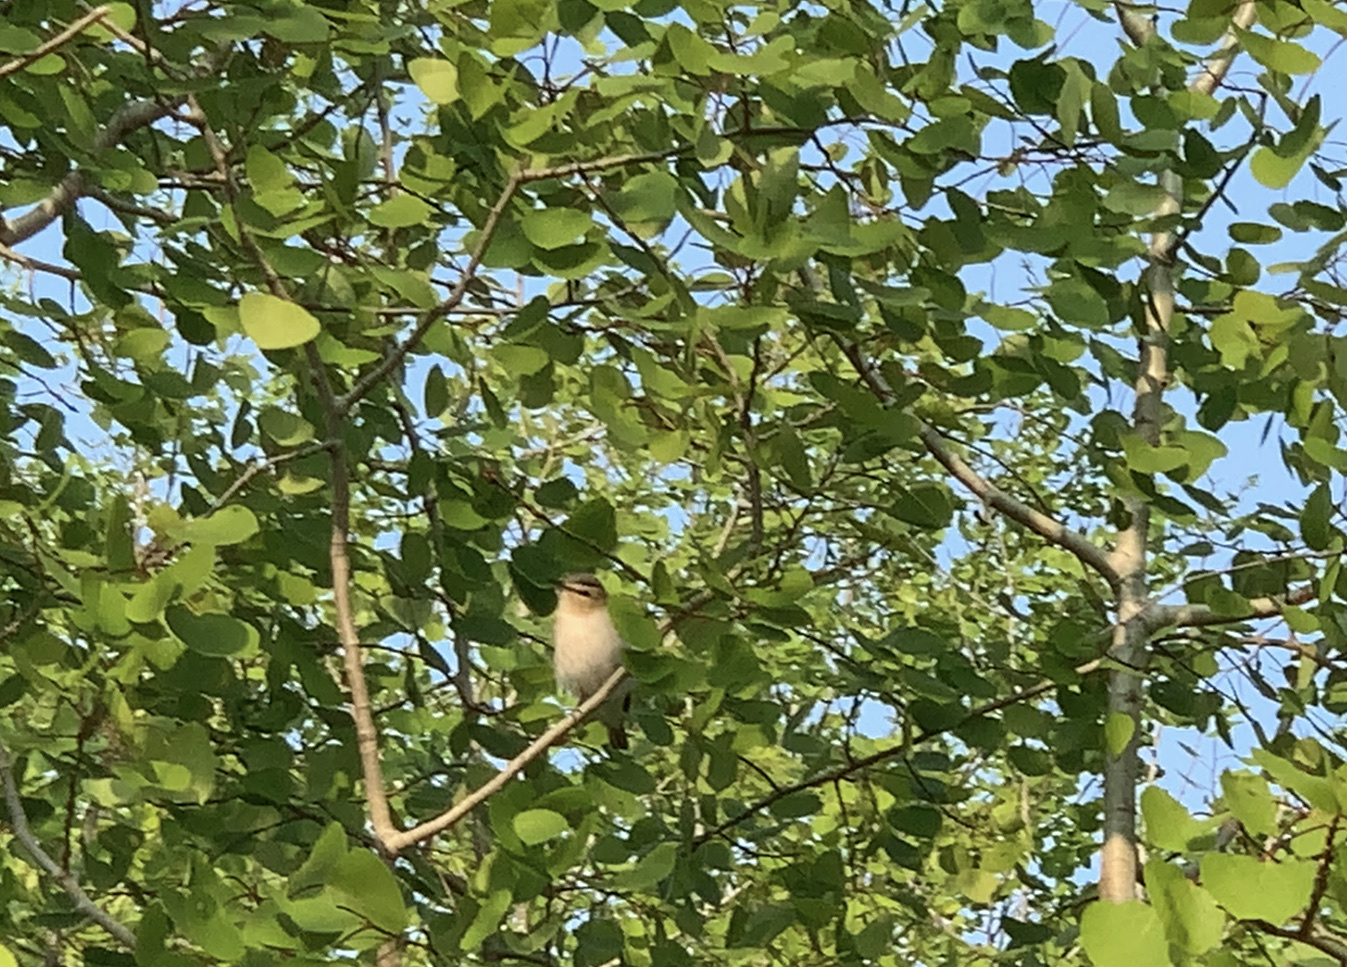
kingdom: Animalia
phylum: Chordata
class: Aves
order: Passeriformes
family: Vireonidae
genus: Vireo
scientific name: Vireo olivaceus
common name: Red-eyed vireo
